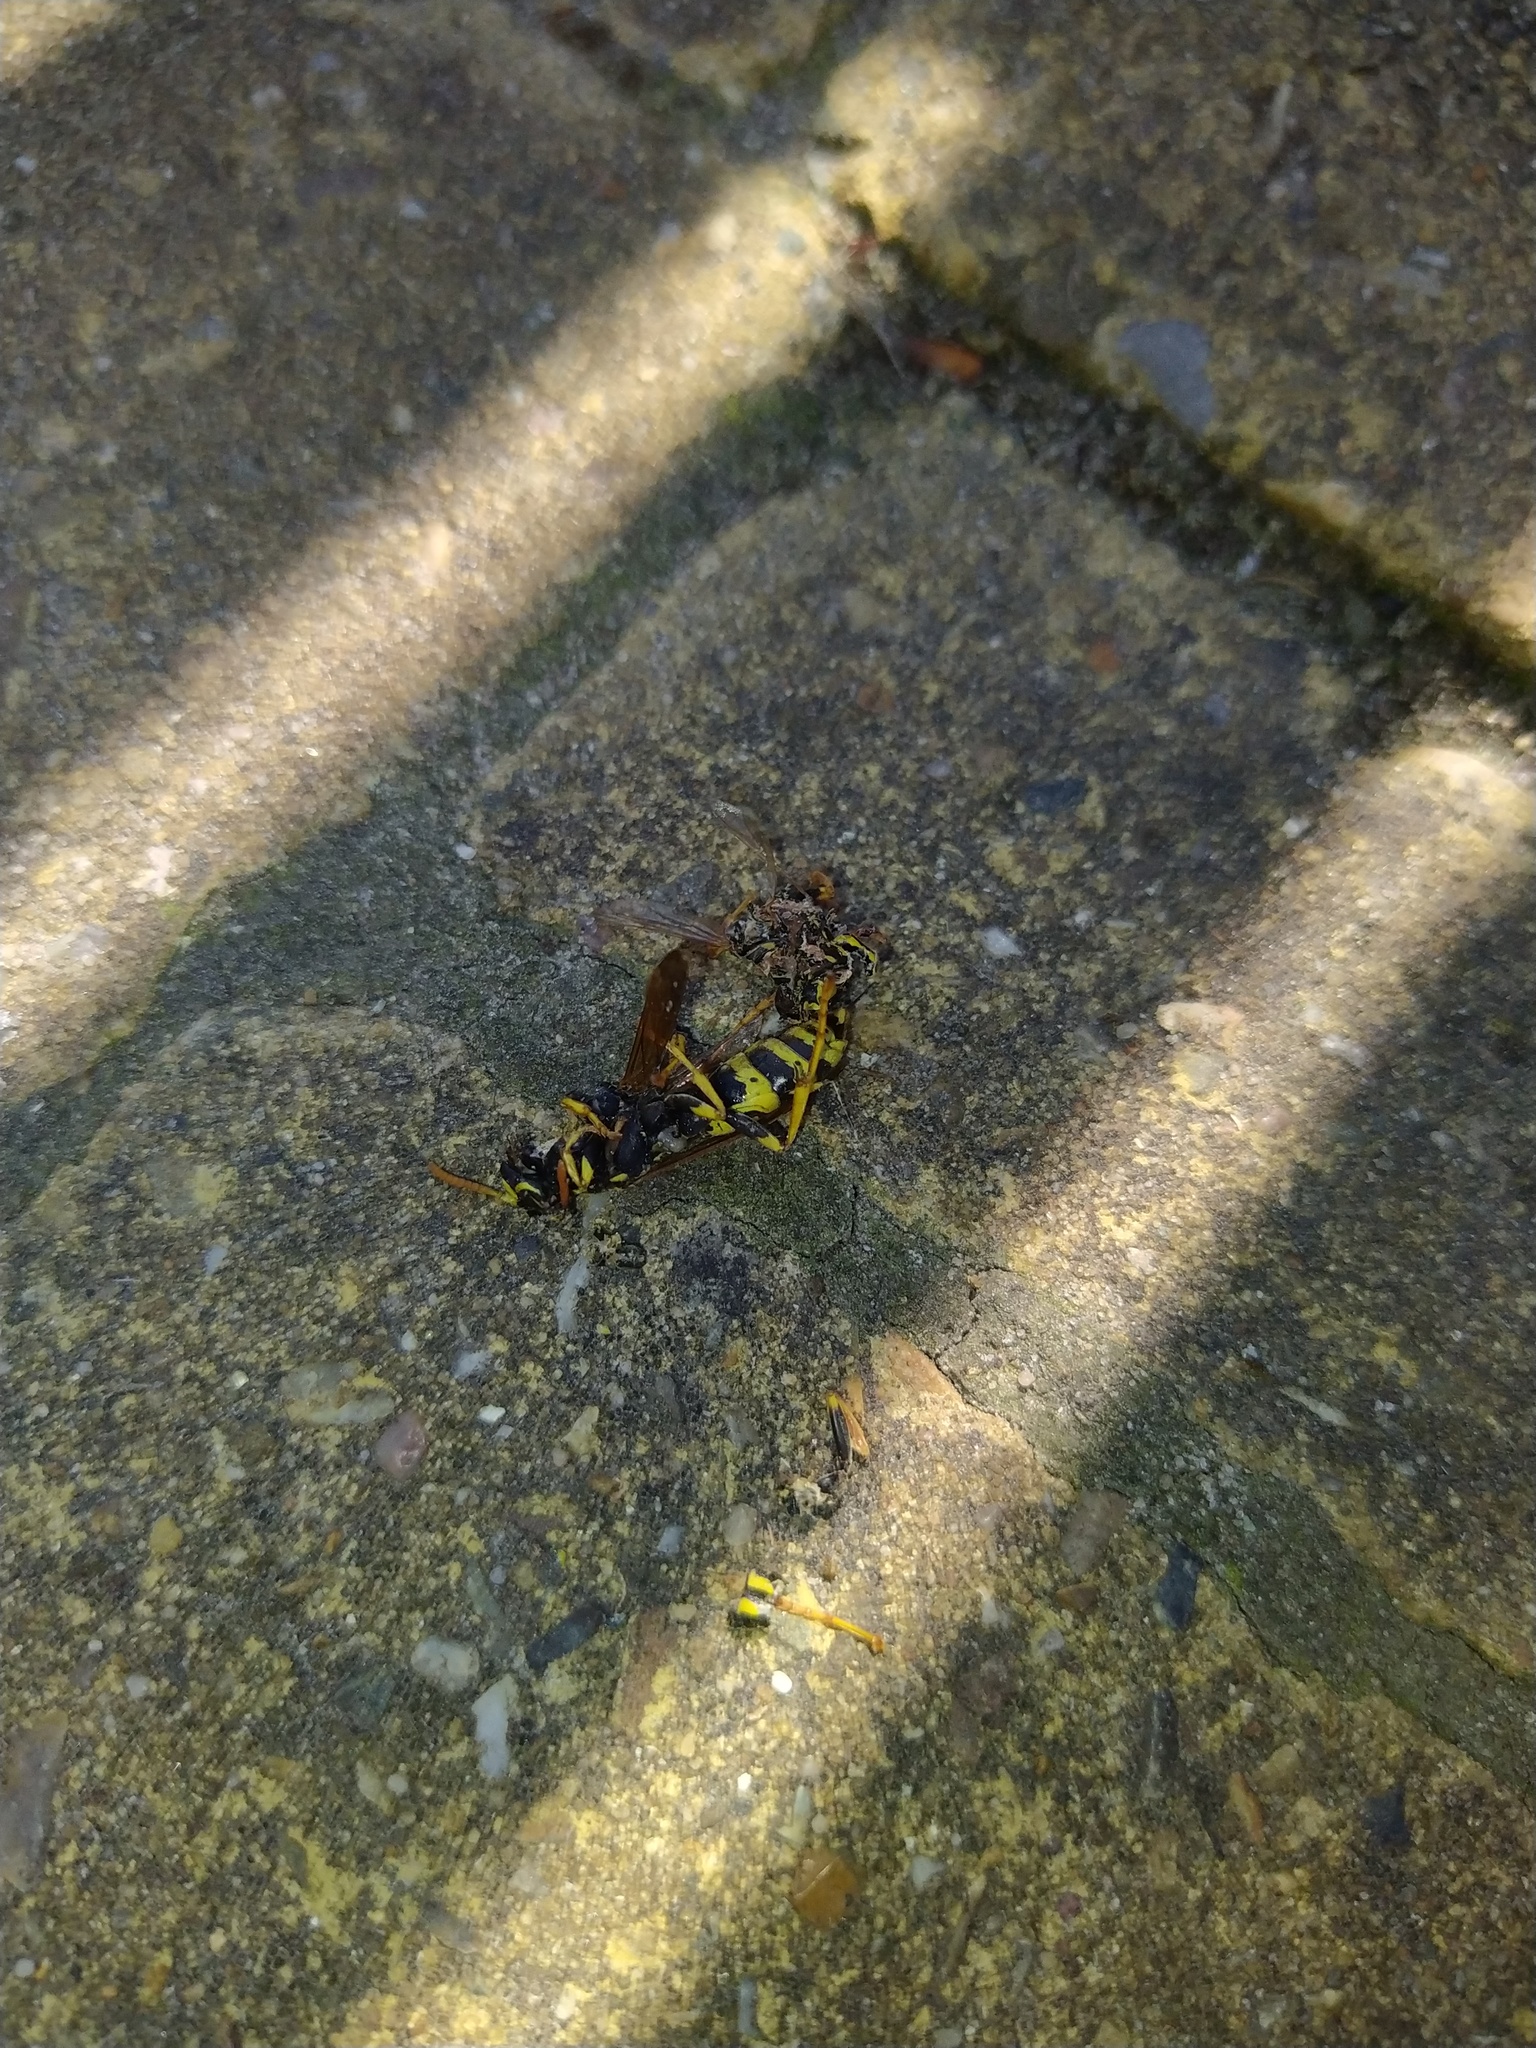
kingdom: Animalia
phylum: Arthropoda
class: Insecta
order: Hymenoptera
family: Eumenidae
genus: Polistes
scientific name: Polistes dominula
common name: Paper wasp
